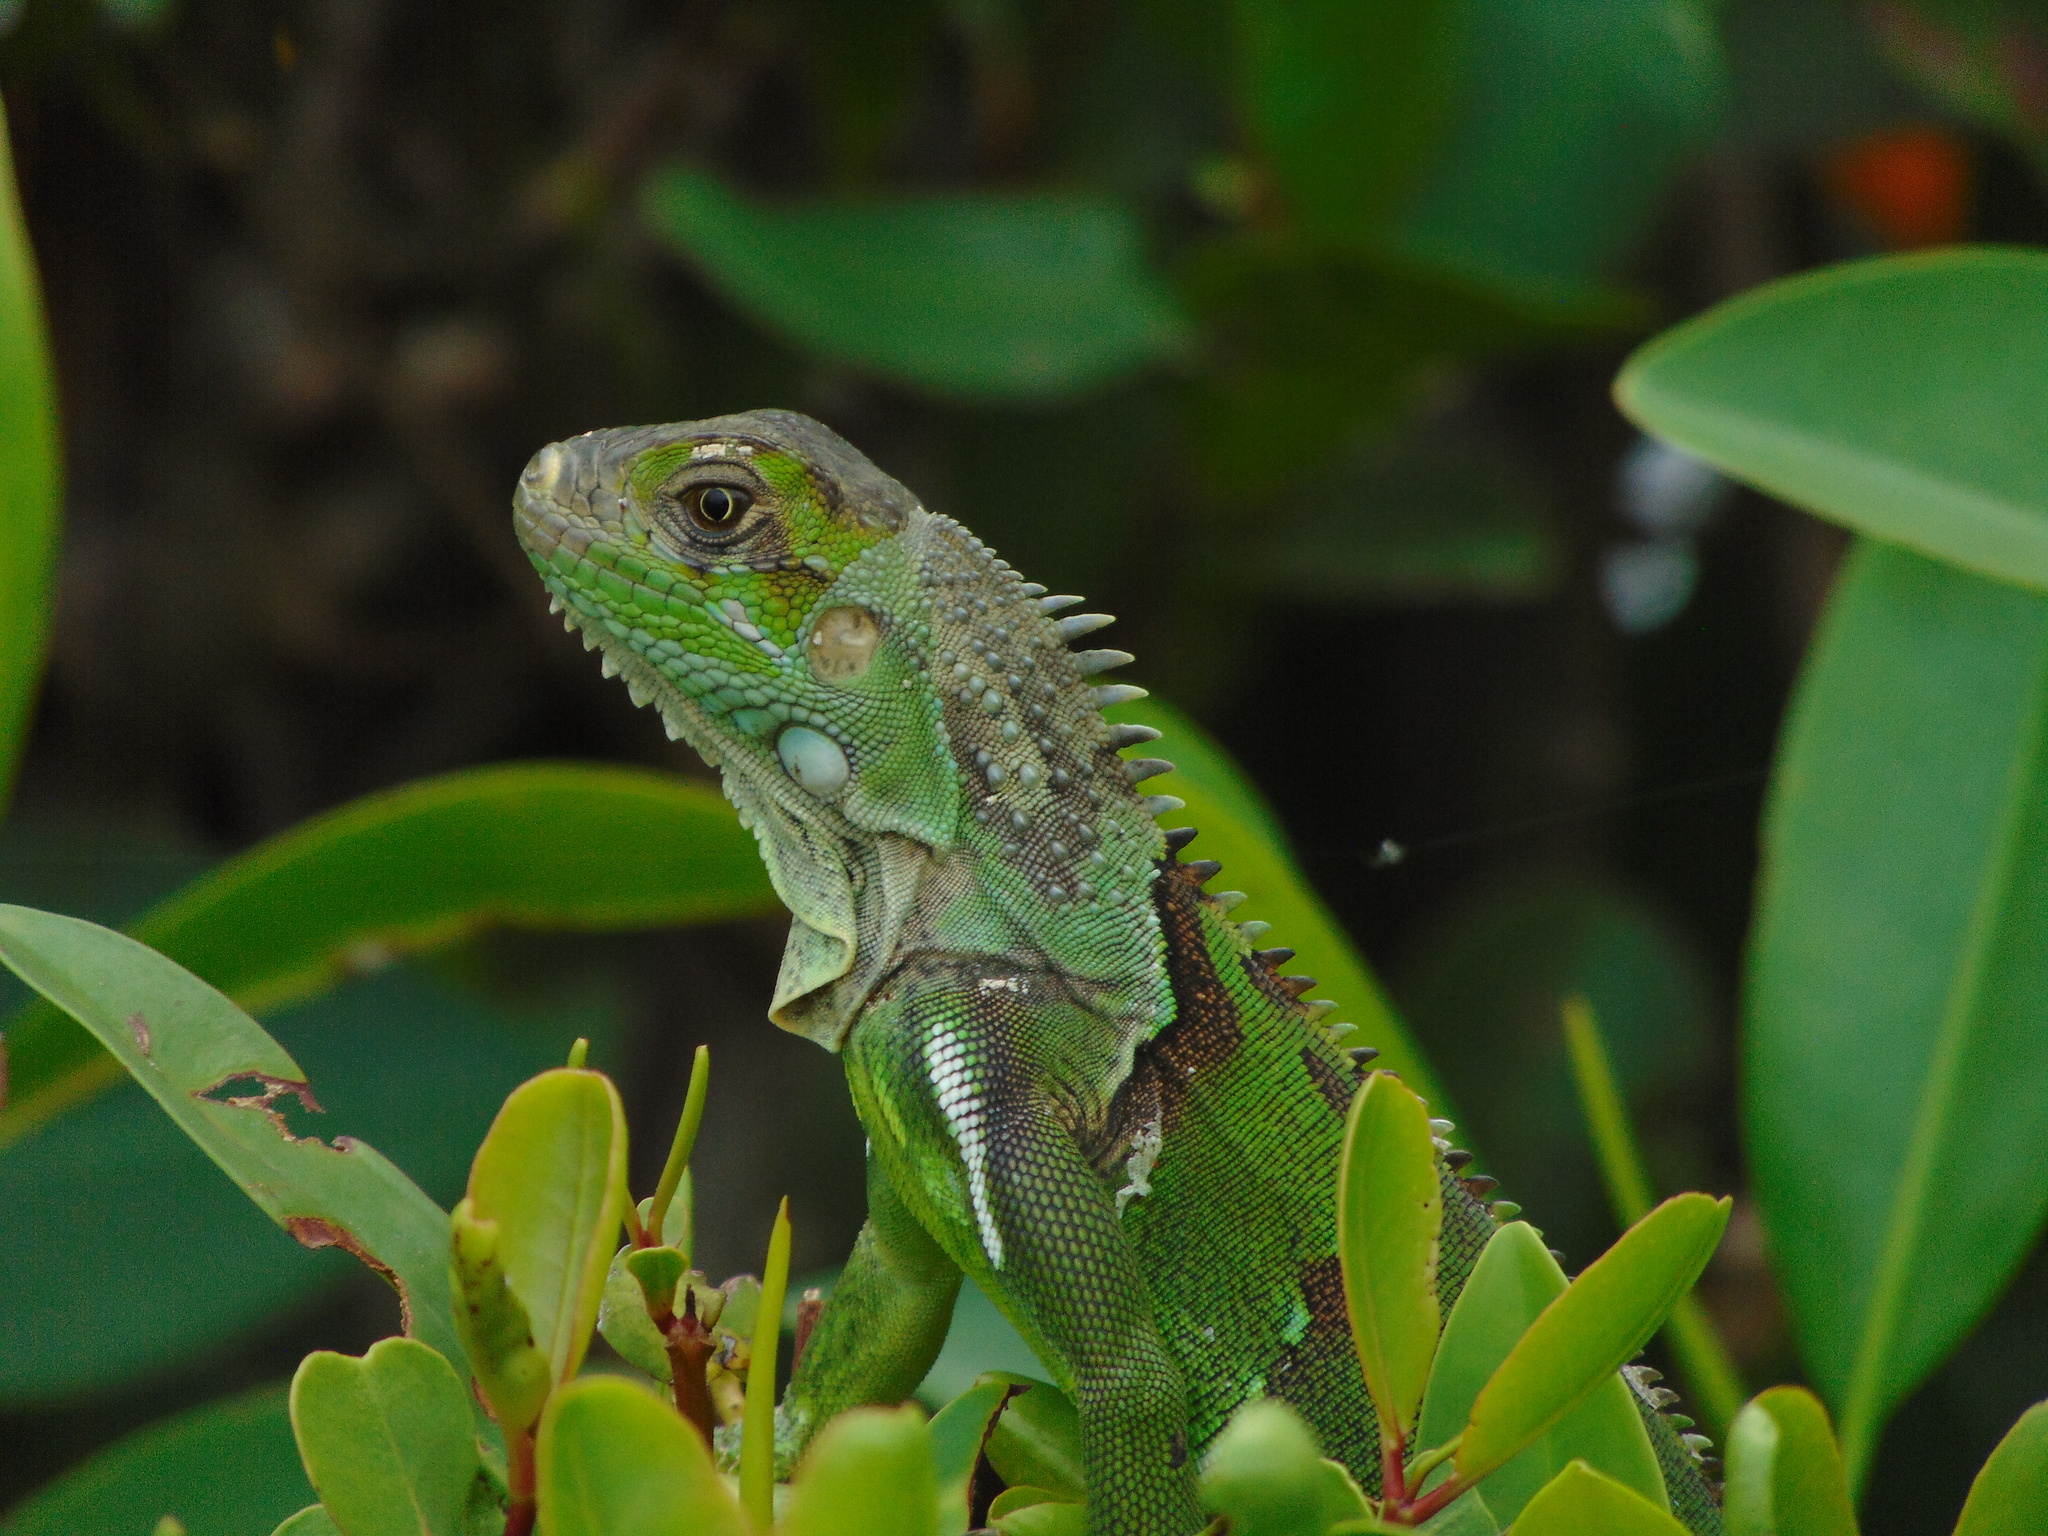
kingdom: Animalia
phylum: Chordata
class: Squamata
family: Iguanidae
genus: Iguana
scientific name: Iguana iguana
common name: Green iguana
